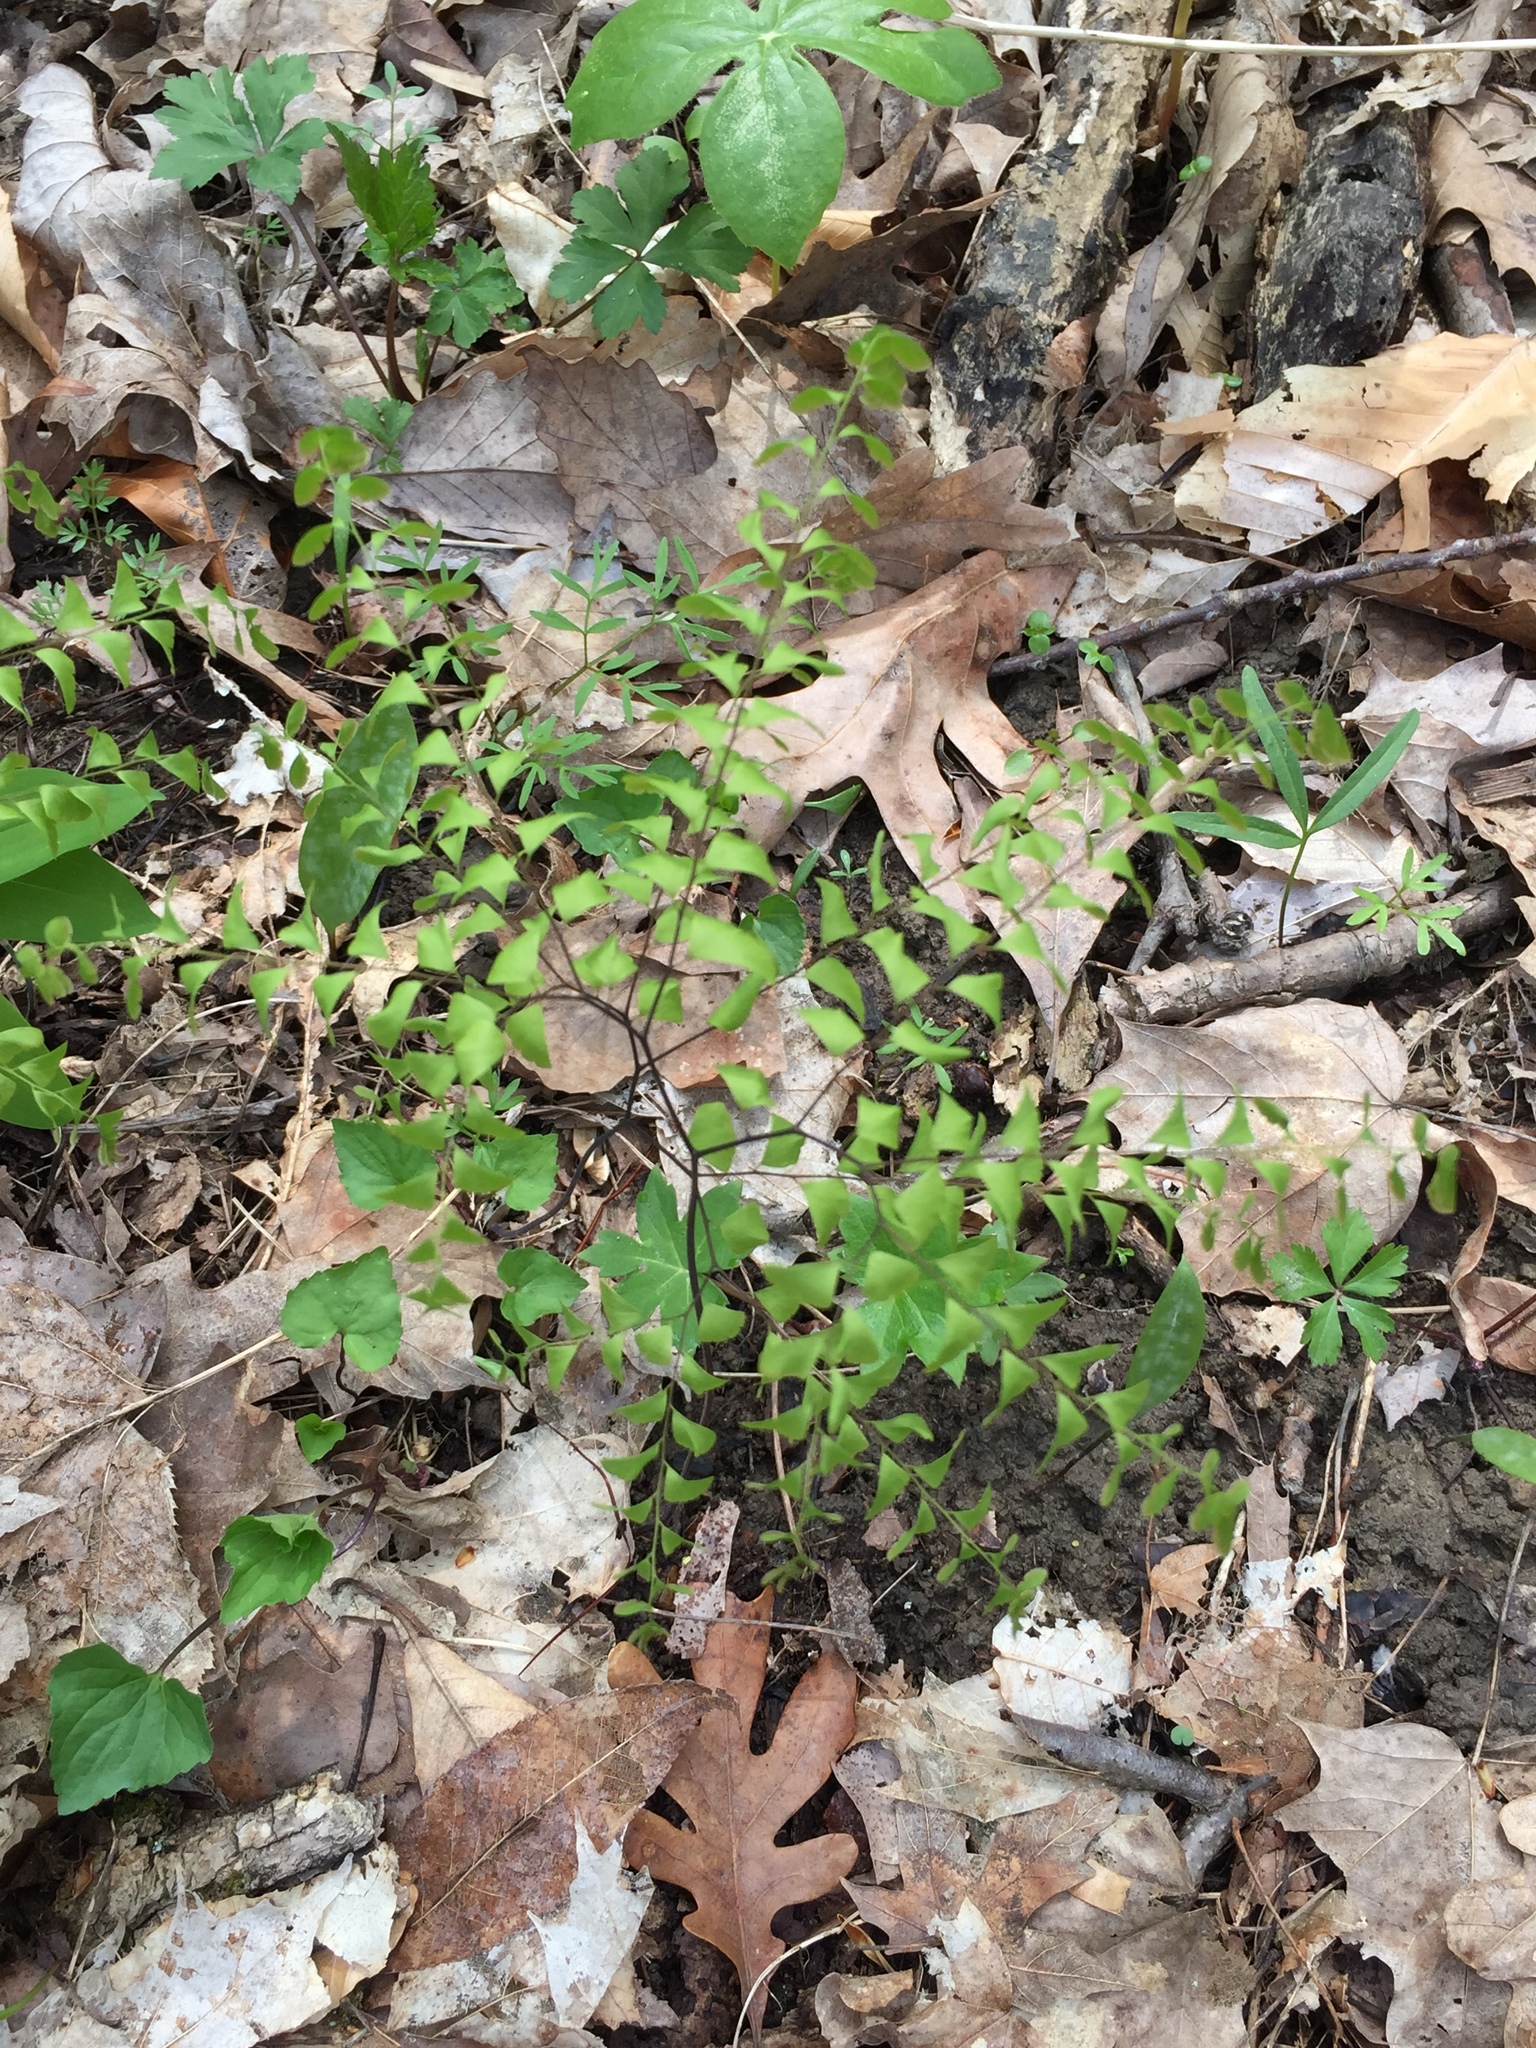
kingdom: Plantae
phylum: Tracheophyta
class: Polypodiopsida
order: Polypodiales
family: Pteridaceae
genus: Adiantum
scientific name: Adiantum pedatum
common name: Five-finger fern
